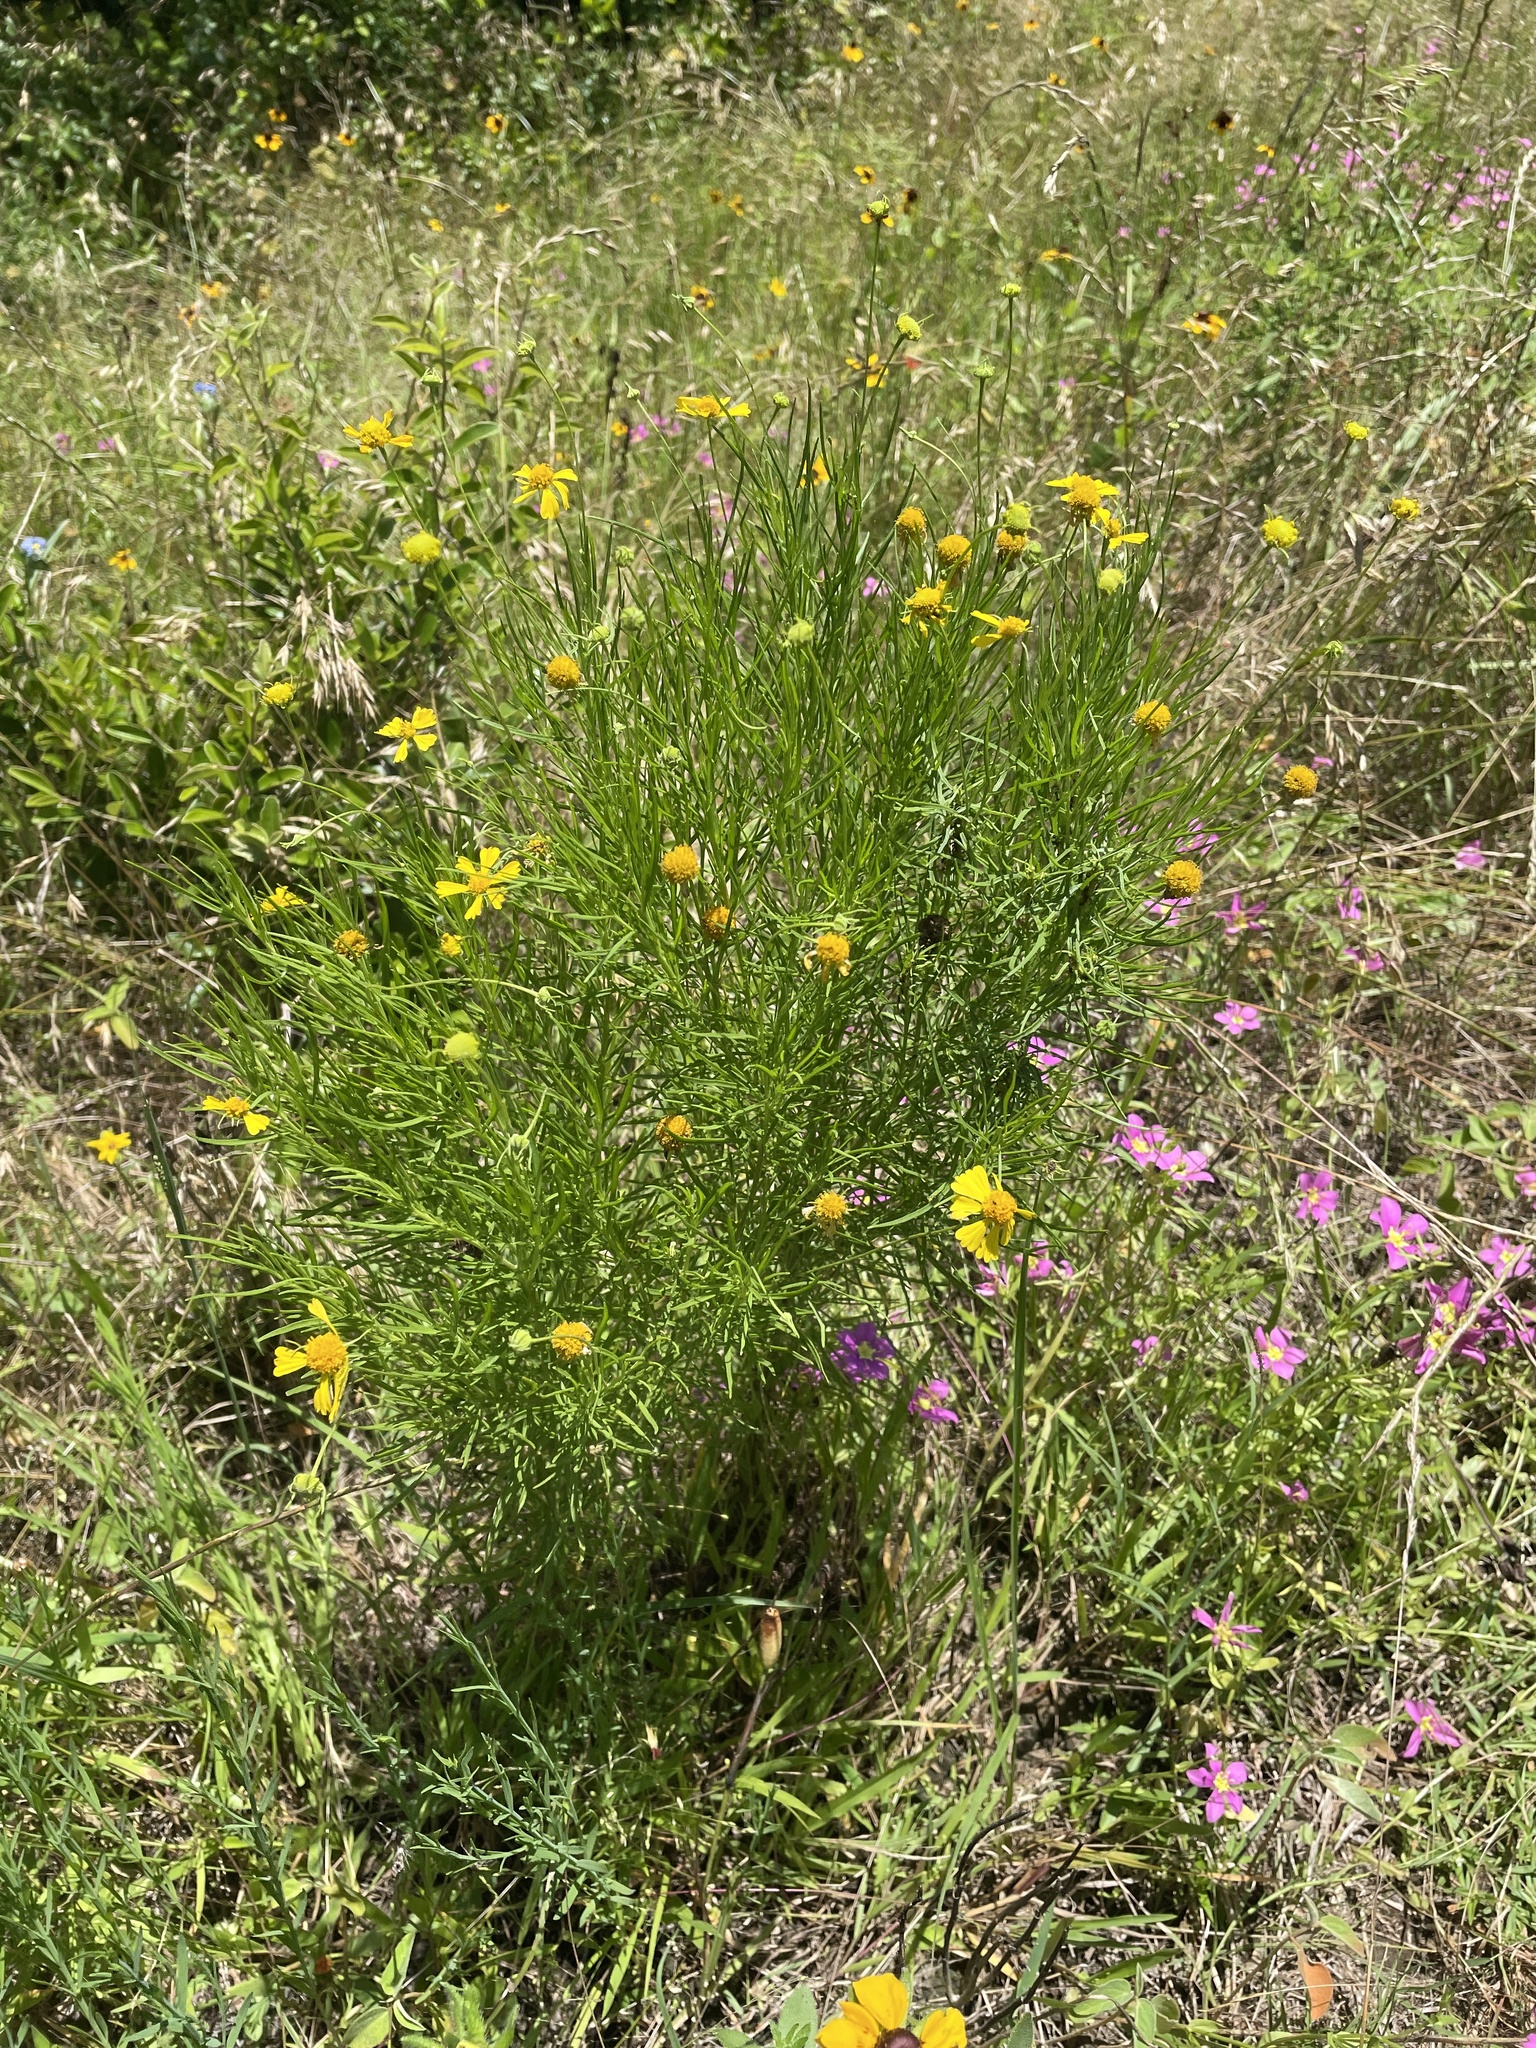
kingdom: Plantae
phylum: Tracheophyta
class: Magnoliopsida
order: Asterales
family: Asteraceae
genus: Helenium
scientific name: Helenium amarum
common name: Bitter sneezeweed
